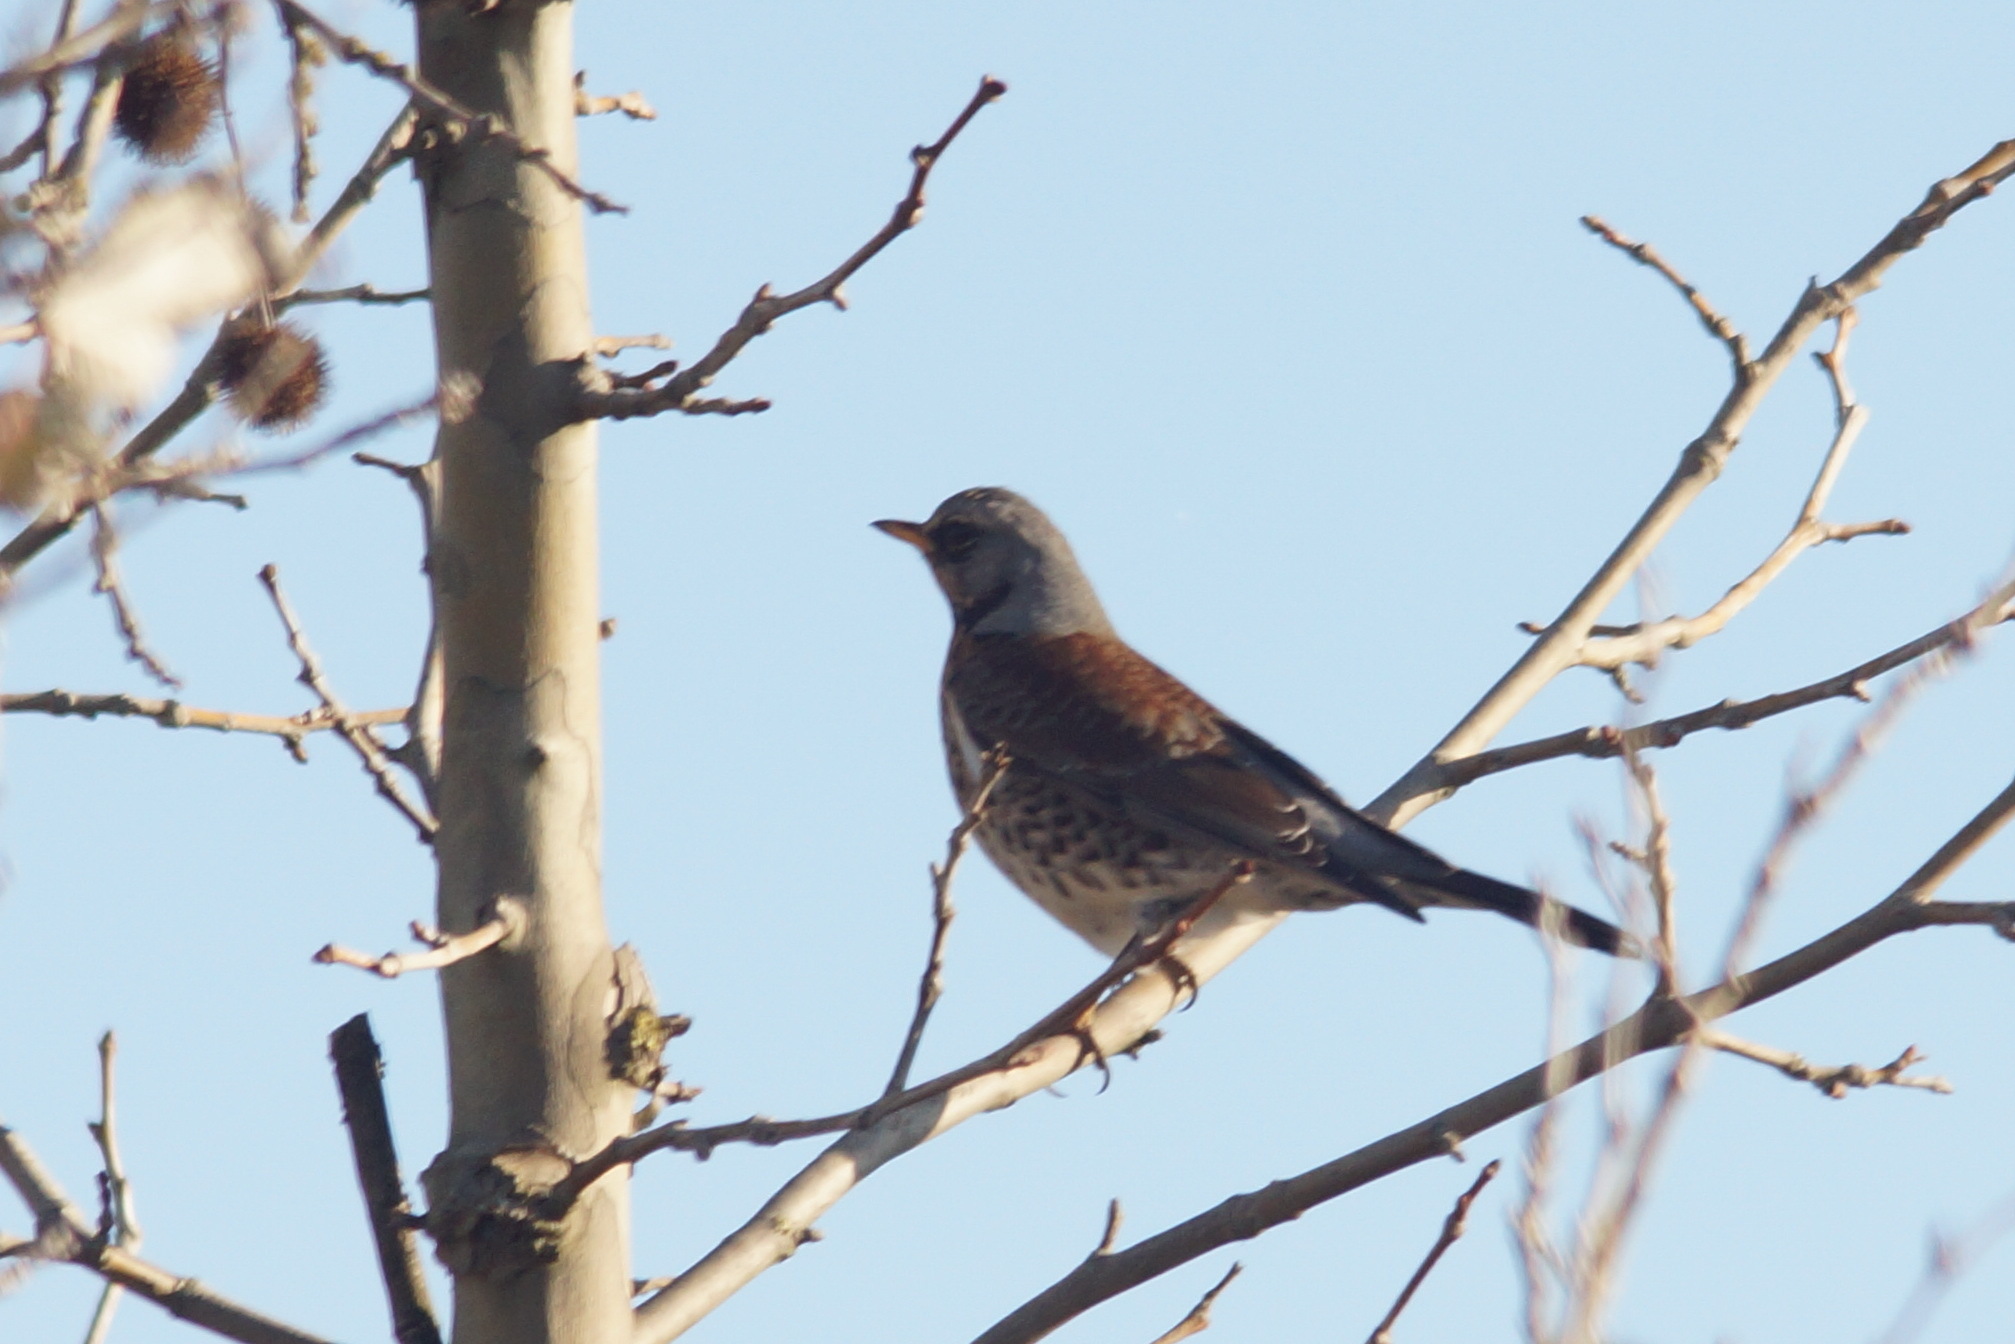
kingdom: Animalia
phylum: Chordata
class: Aves
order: Passeriformes
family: Turdidae
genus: Turdus
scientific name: Turdus pilaris
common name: Fieldfare
